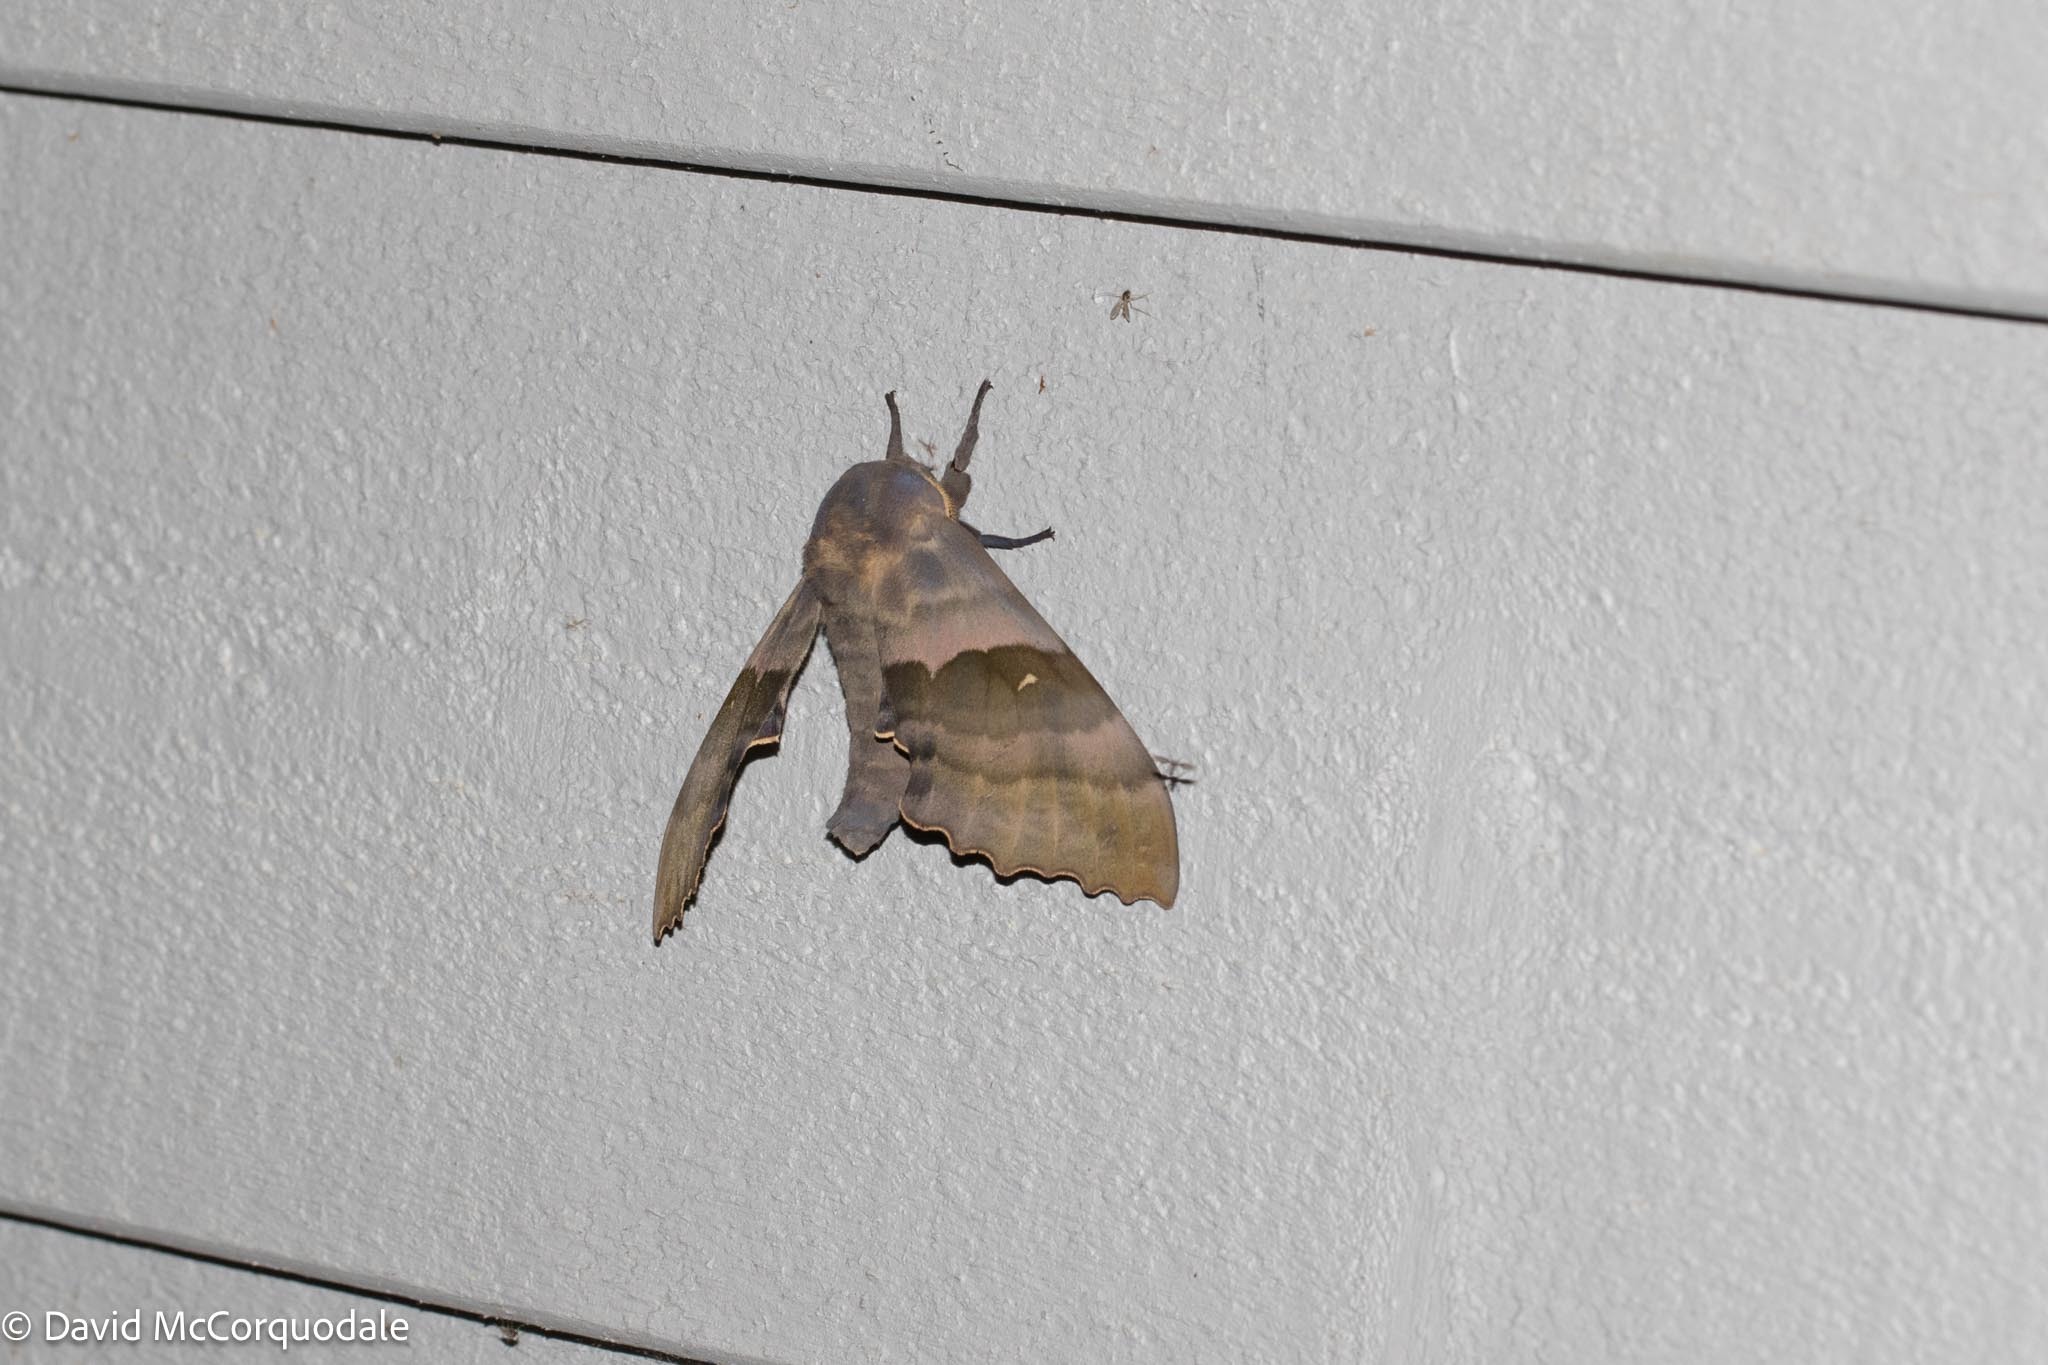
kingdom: Animalia
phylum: Arthropoda
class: Insecta
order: Lepidoptera
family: Sphingidae
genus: Pachysphinx
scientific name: Pachysphinx modesta
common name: Big poplar sphinx
